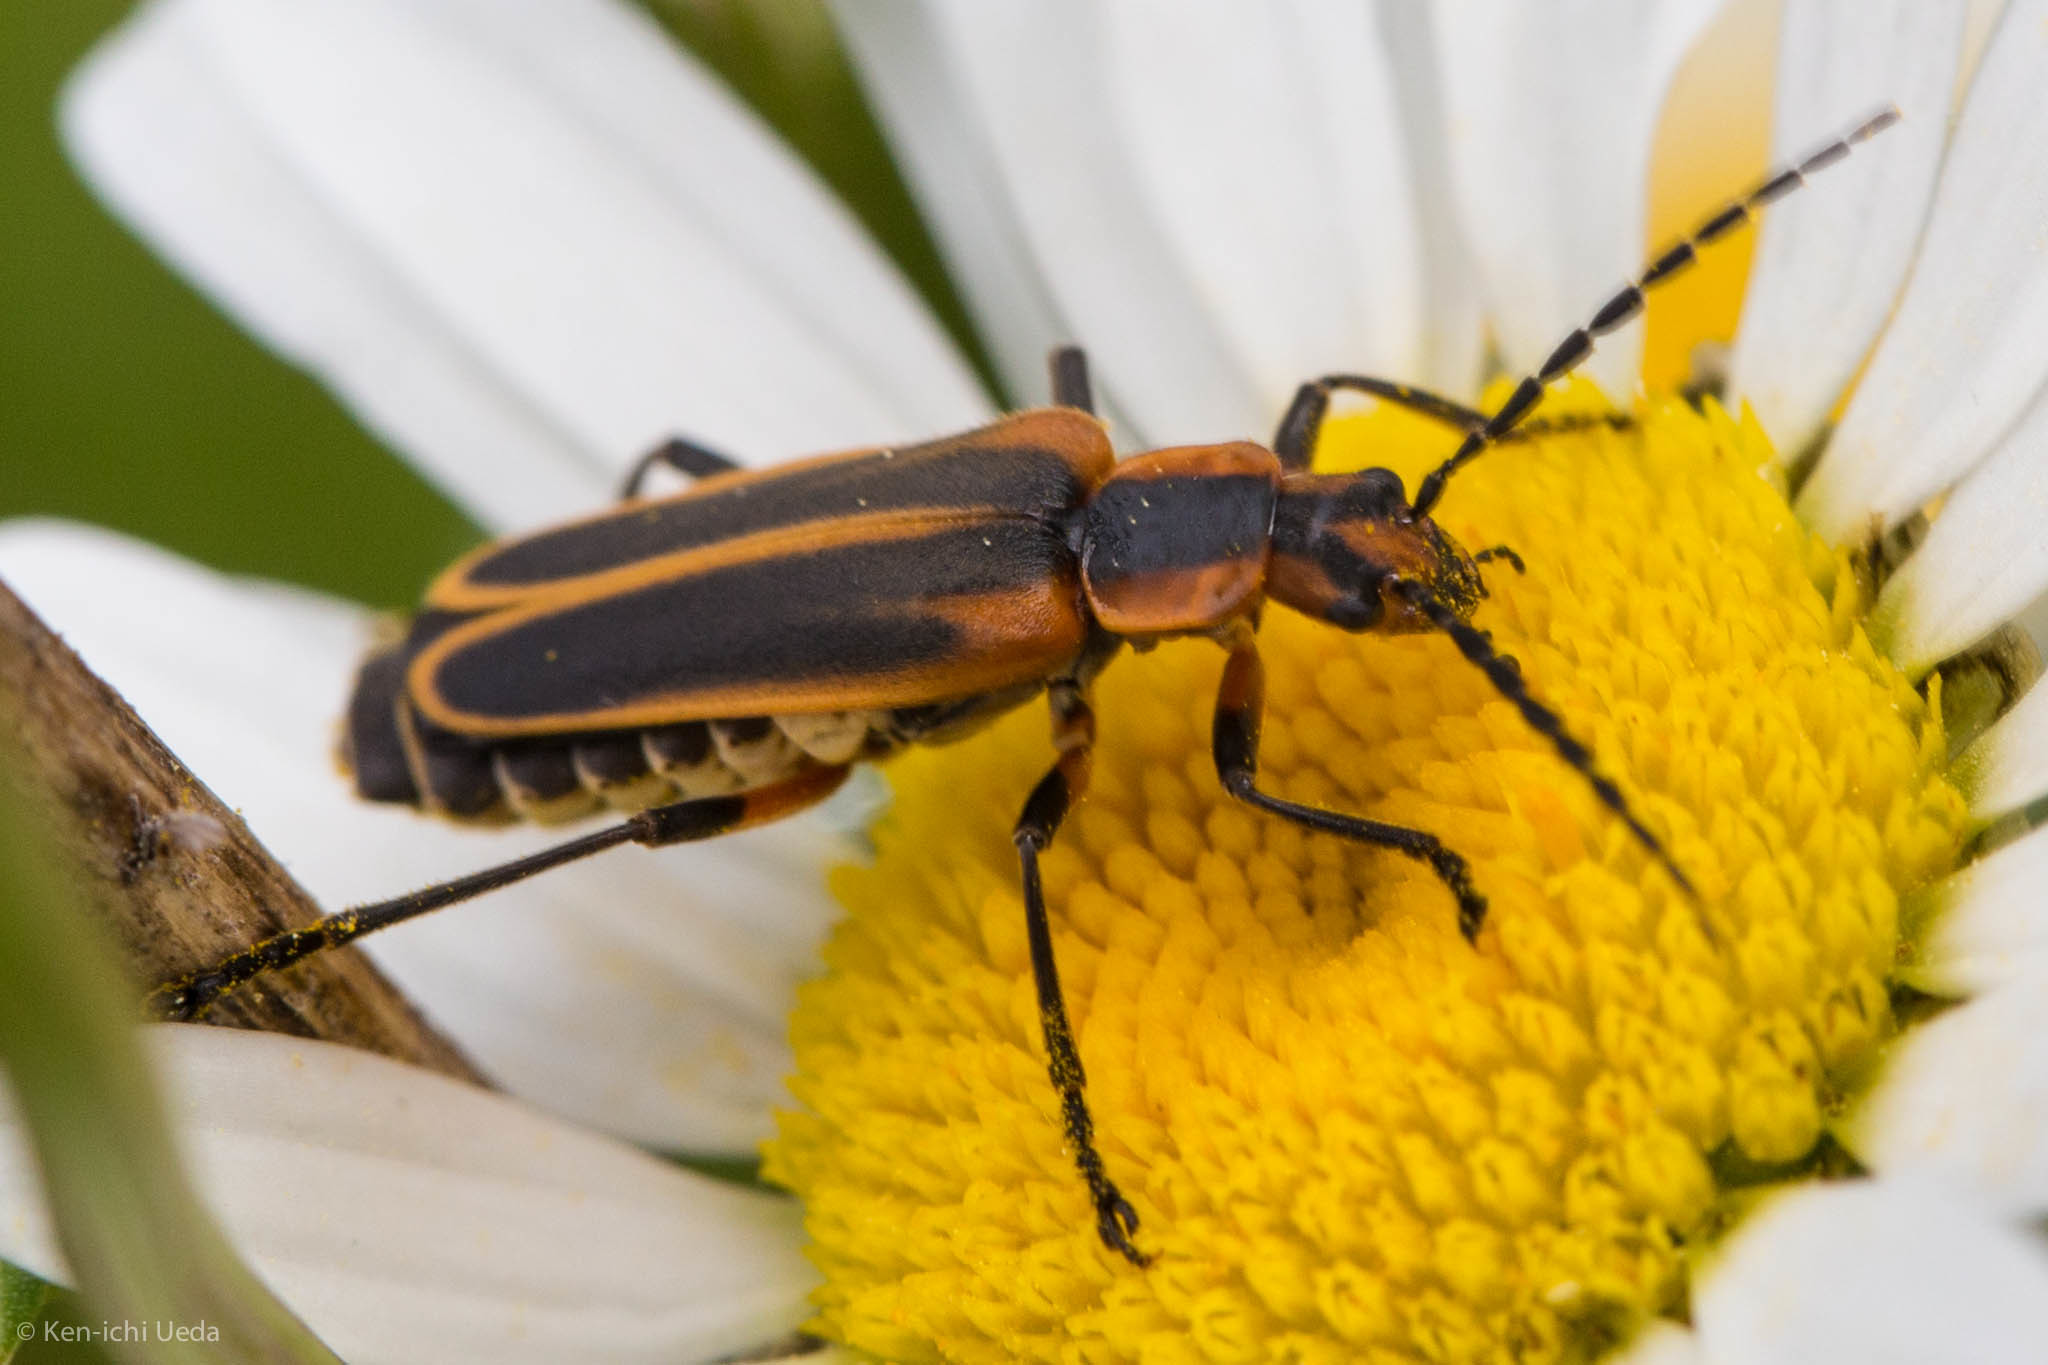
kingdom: Animalia
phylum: Arthropoda
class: Insecta
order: Coleoptera
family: Cantharidae
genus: Chauliognathus
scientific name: Chauliognathus marginatus
